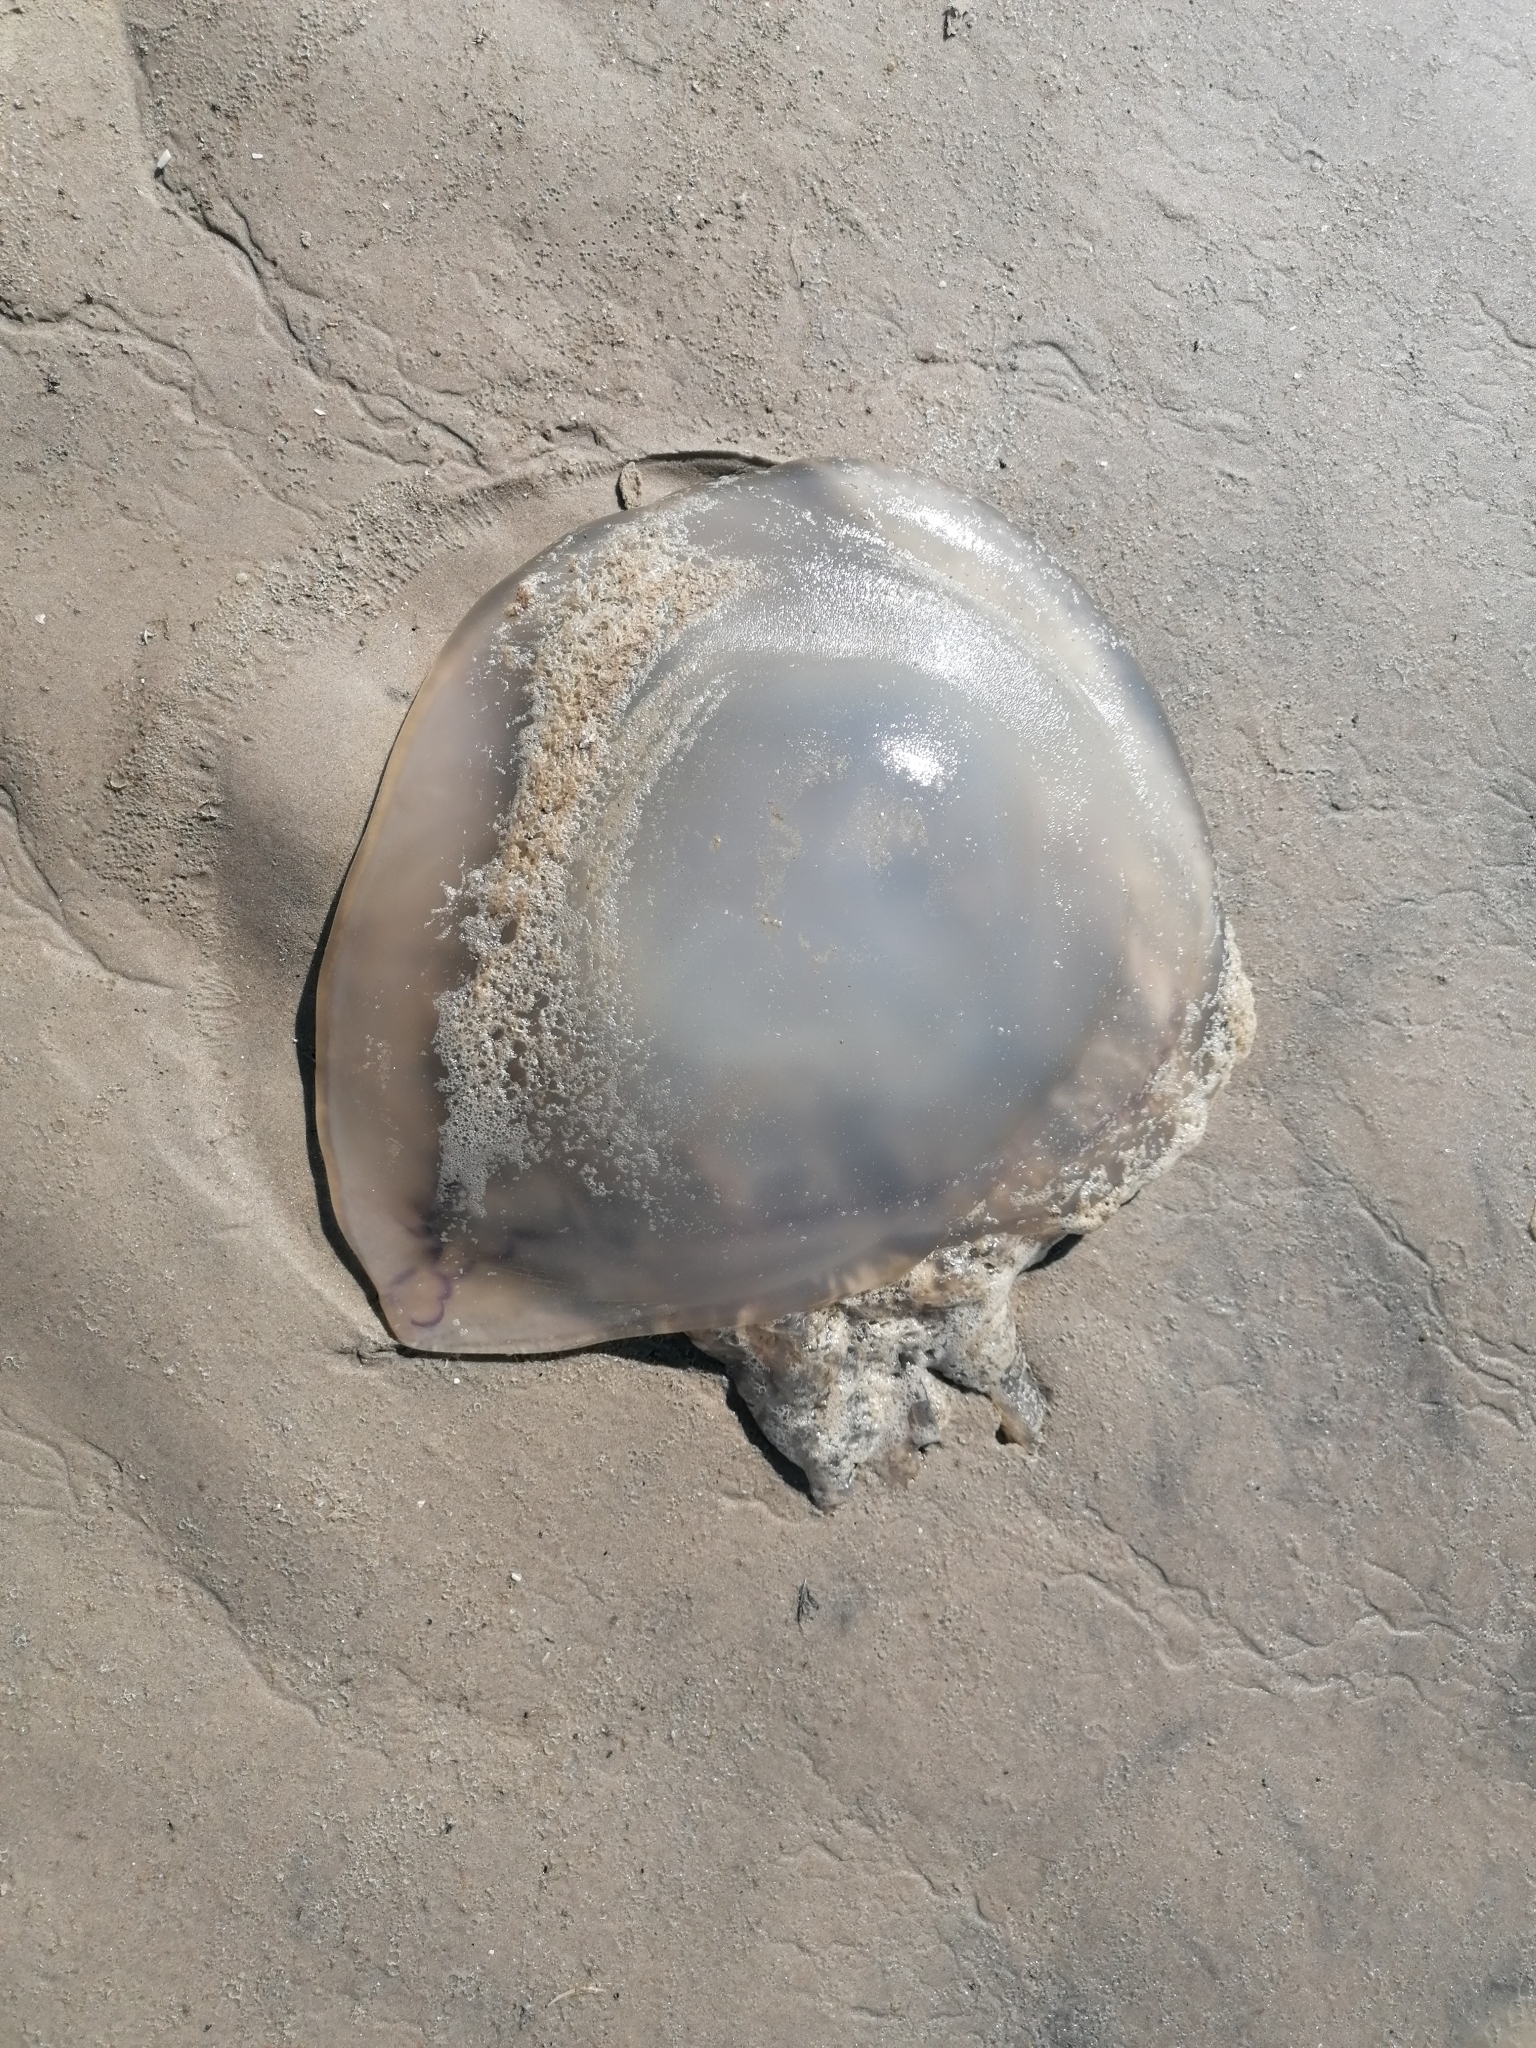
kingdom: Animalia
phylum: Cnidaria
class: Scyphozoa
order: Rhizostomeae
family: Rhizostomatidae
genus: Rhizostoma
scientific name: Rhizostoma octopus
